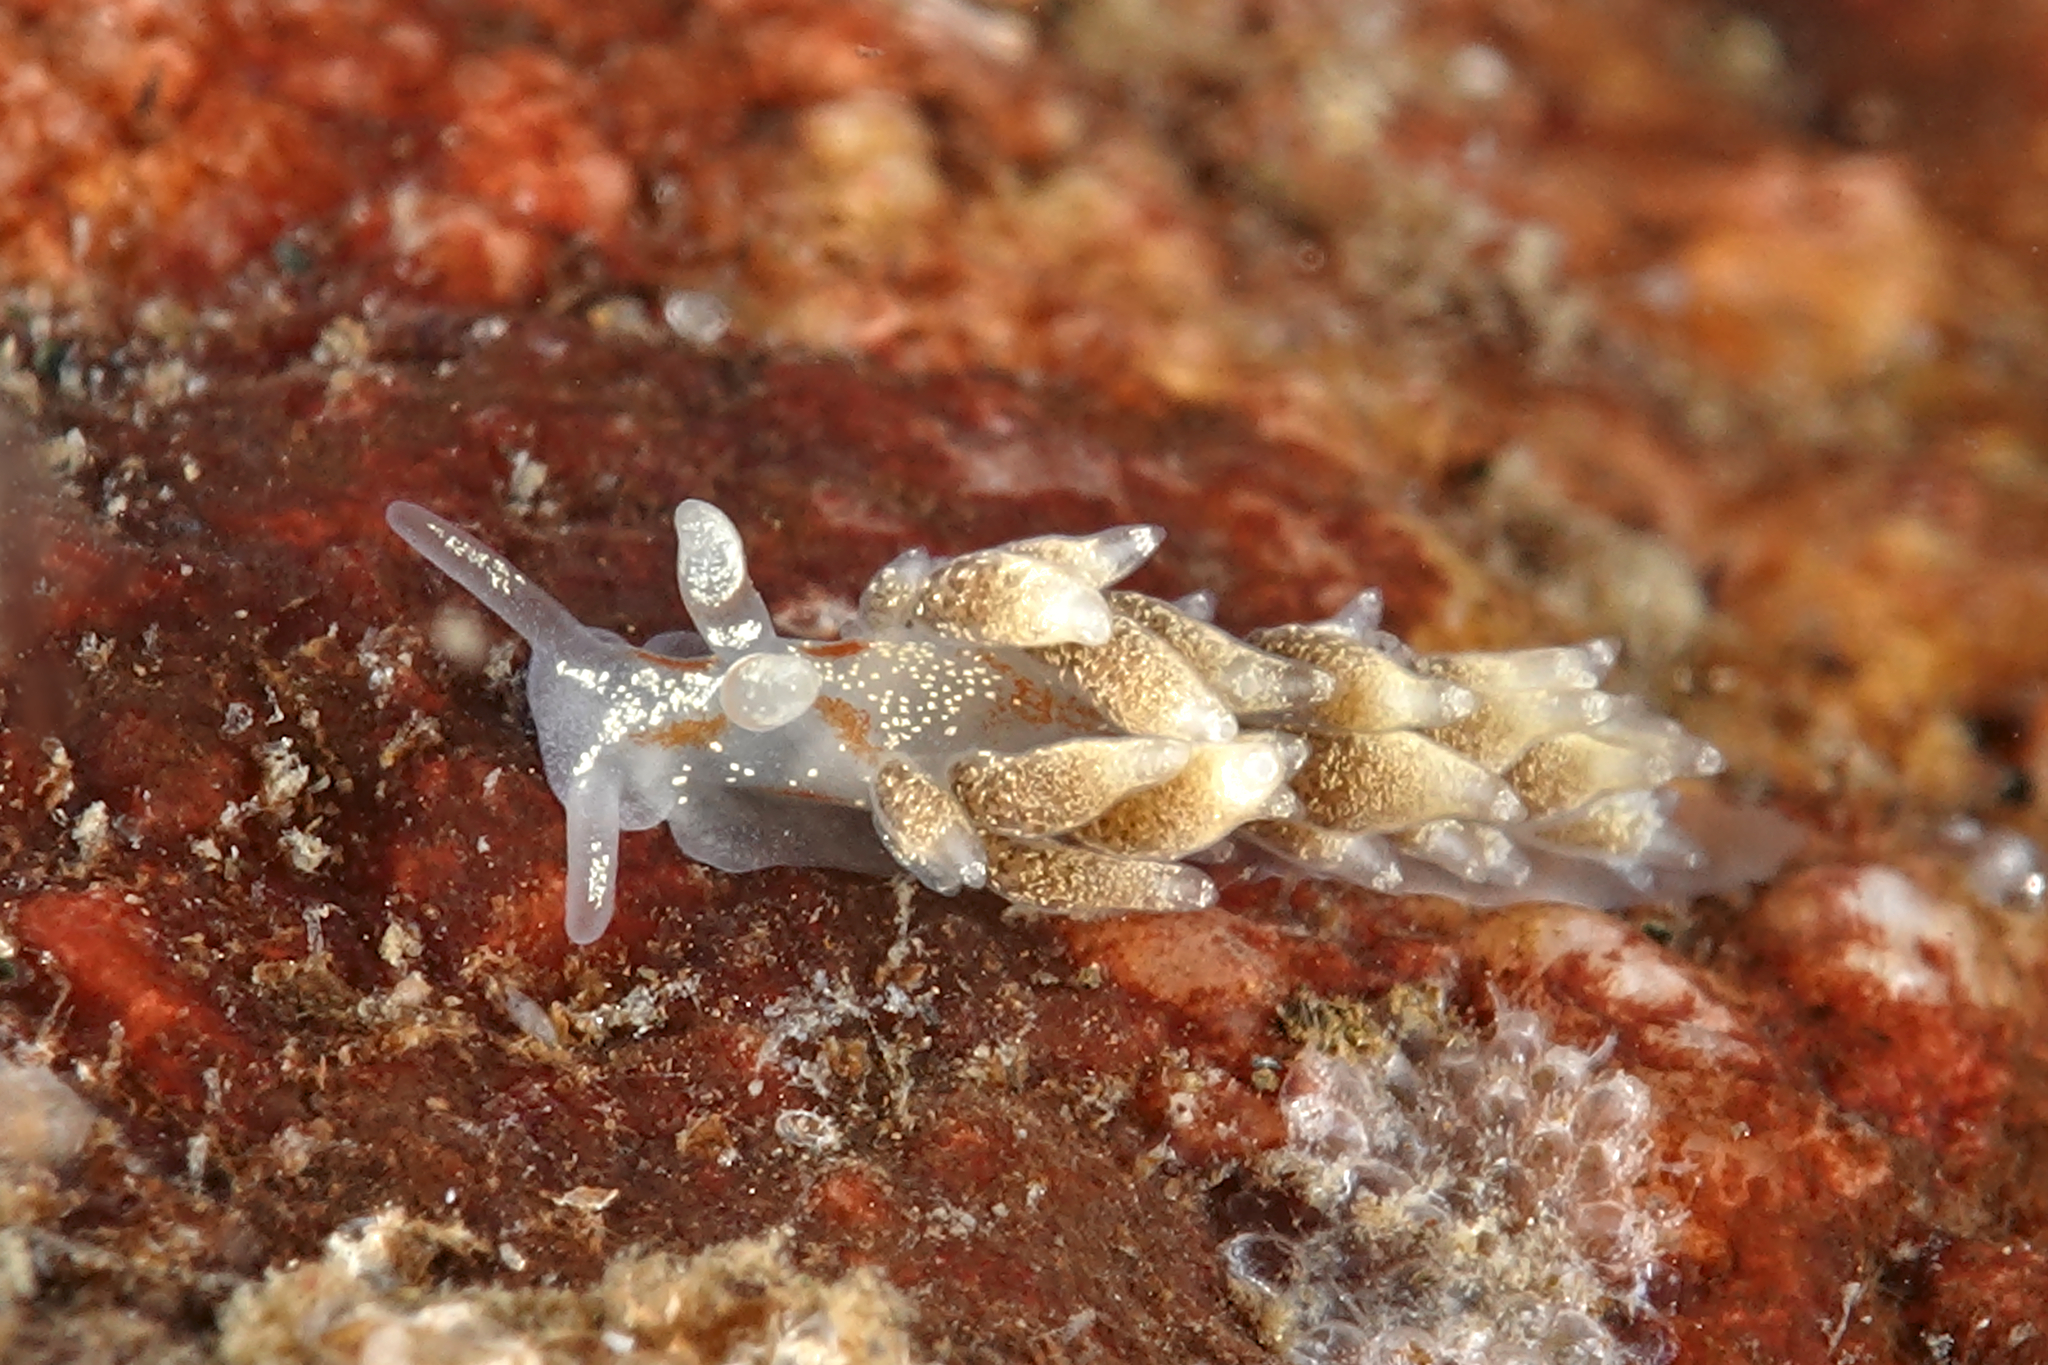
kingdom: Animalia
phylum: Mollusca
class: Gastropoda
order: Nudibranchia
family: Trinchesiidae
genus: Trinchesia
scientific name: Trinchesia foliata
